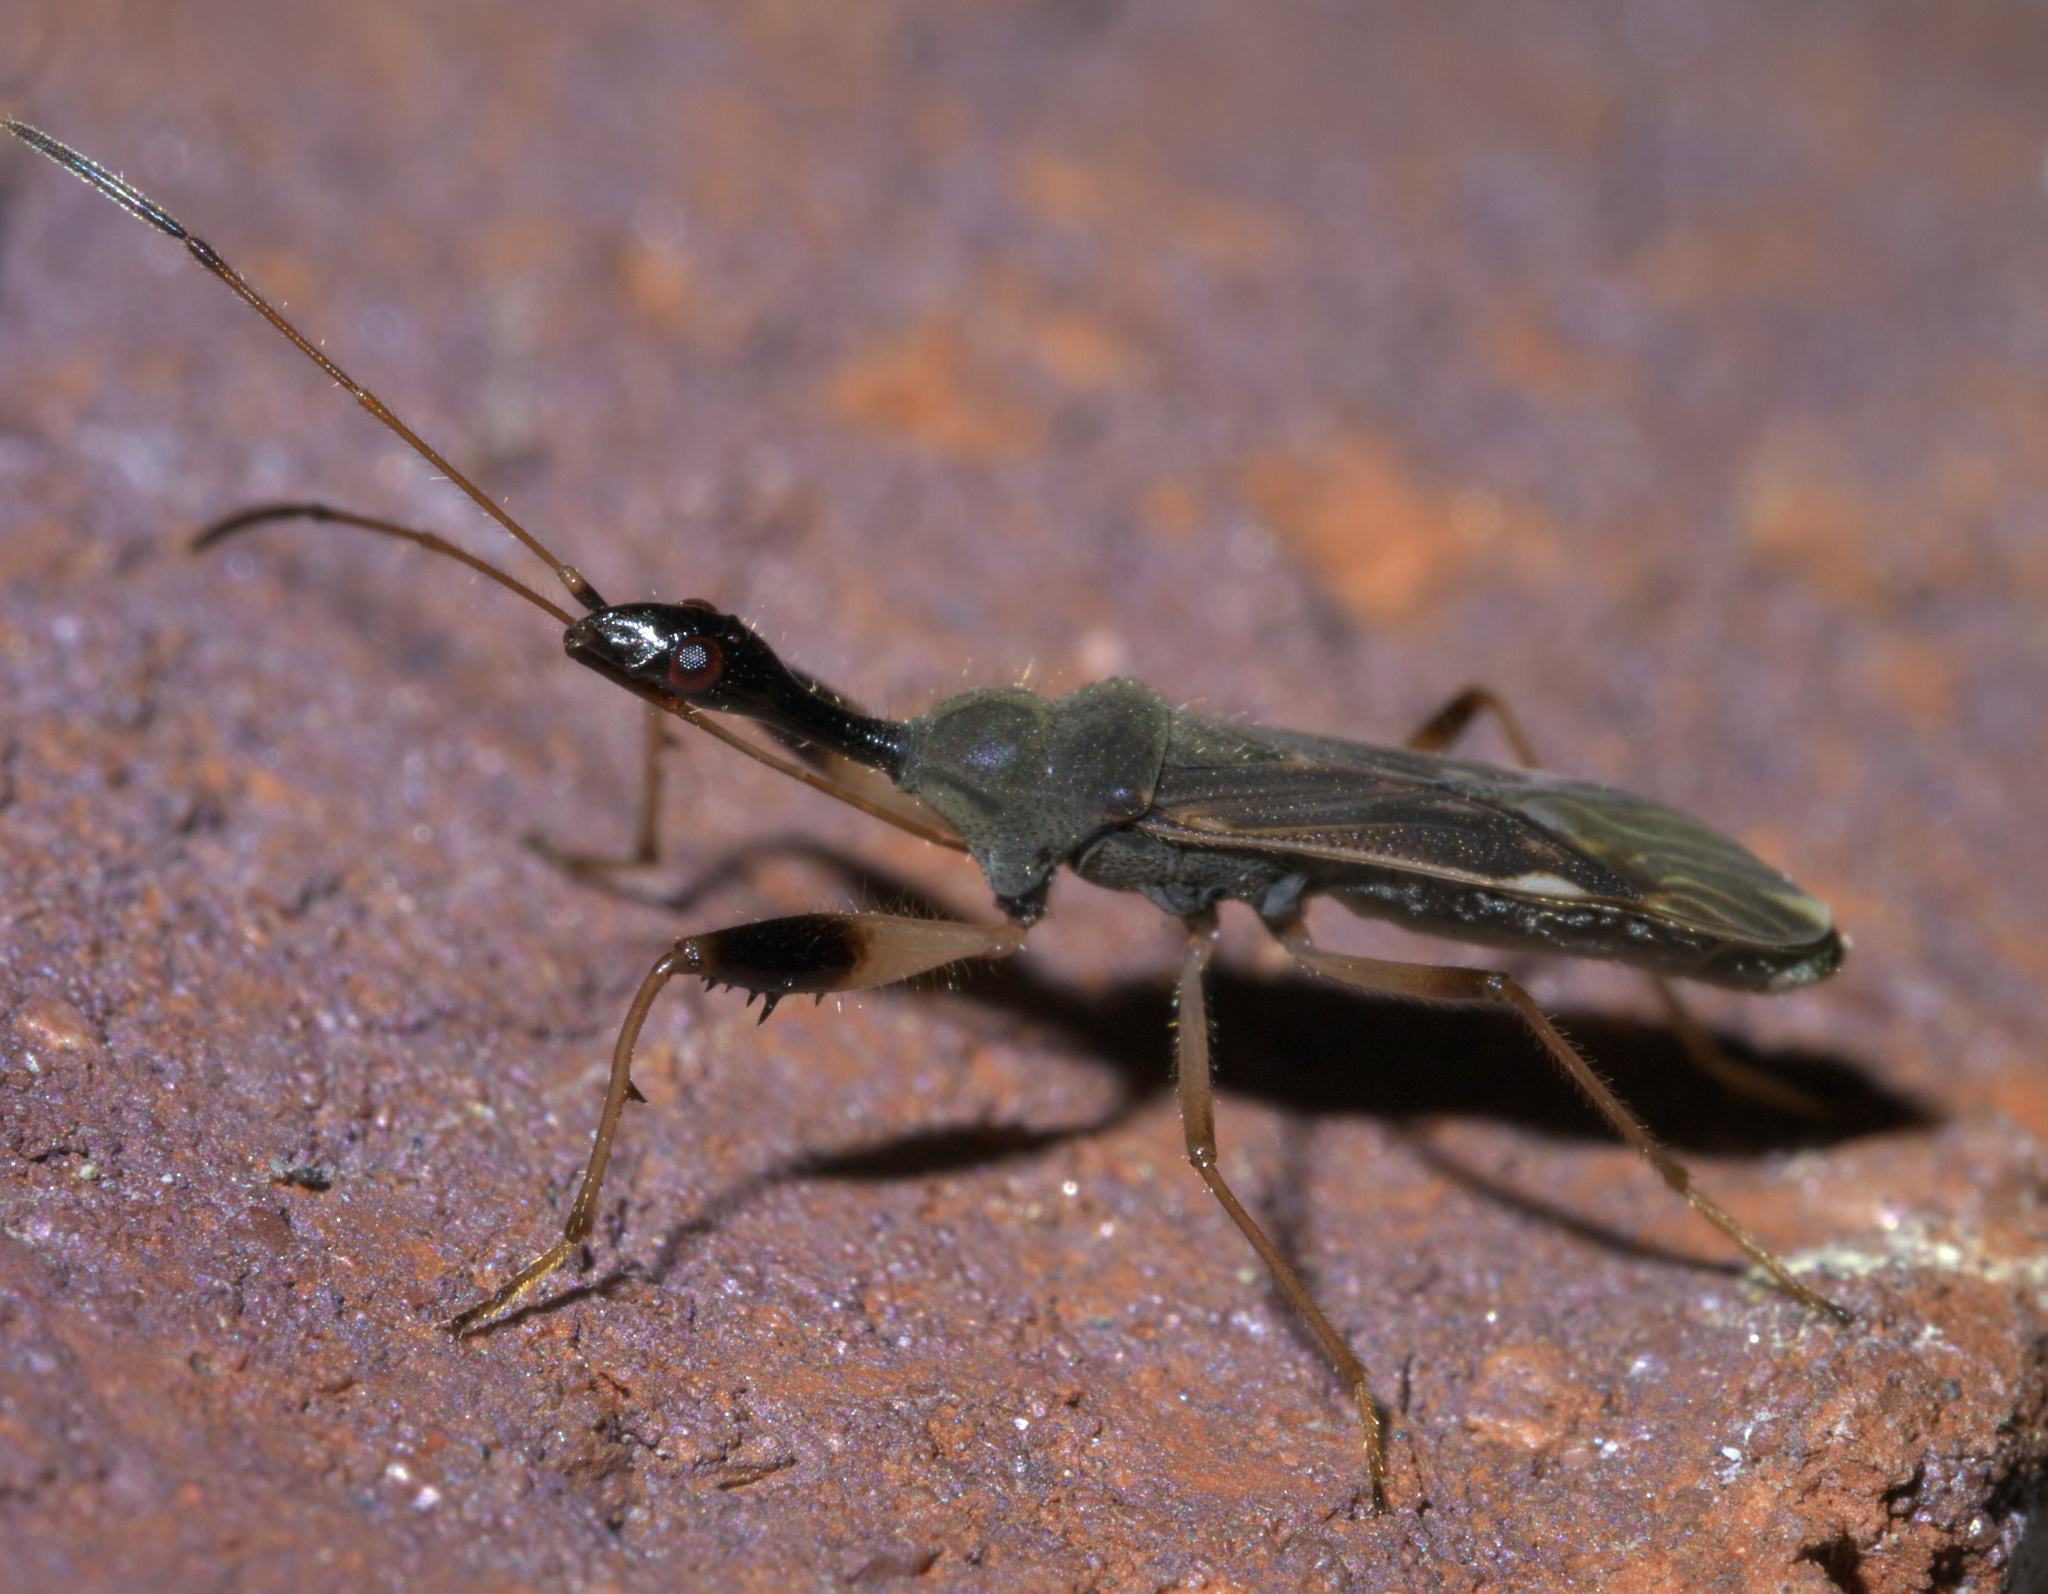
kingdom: Animalia
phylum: Arthropoda
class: Insecta
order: Hemiptera
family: Rhyparochromidae
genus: Myodocha
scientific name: Myodocha serripes
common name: Long-necked seed bug
